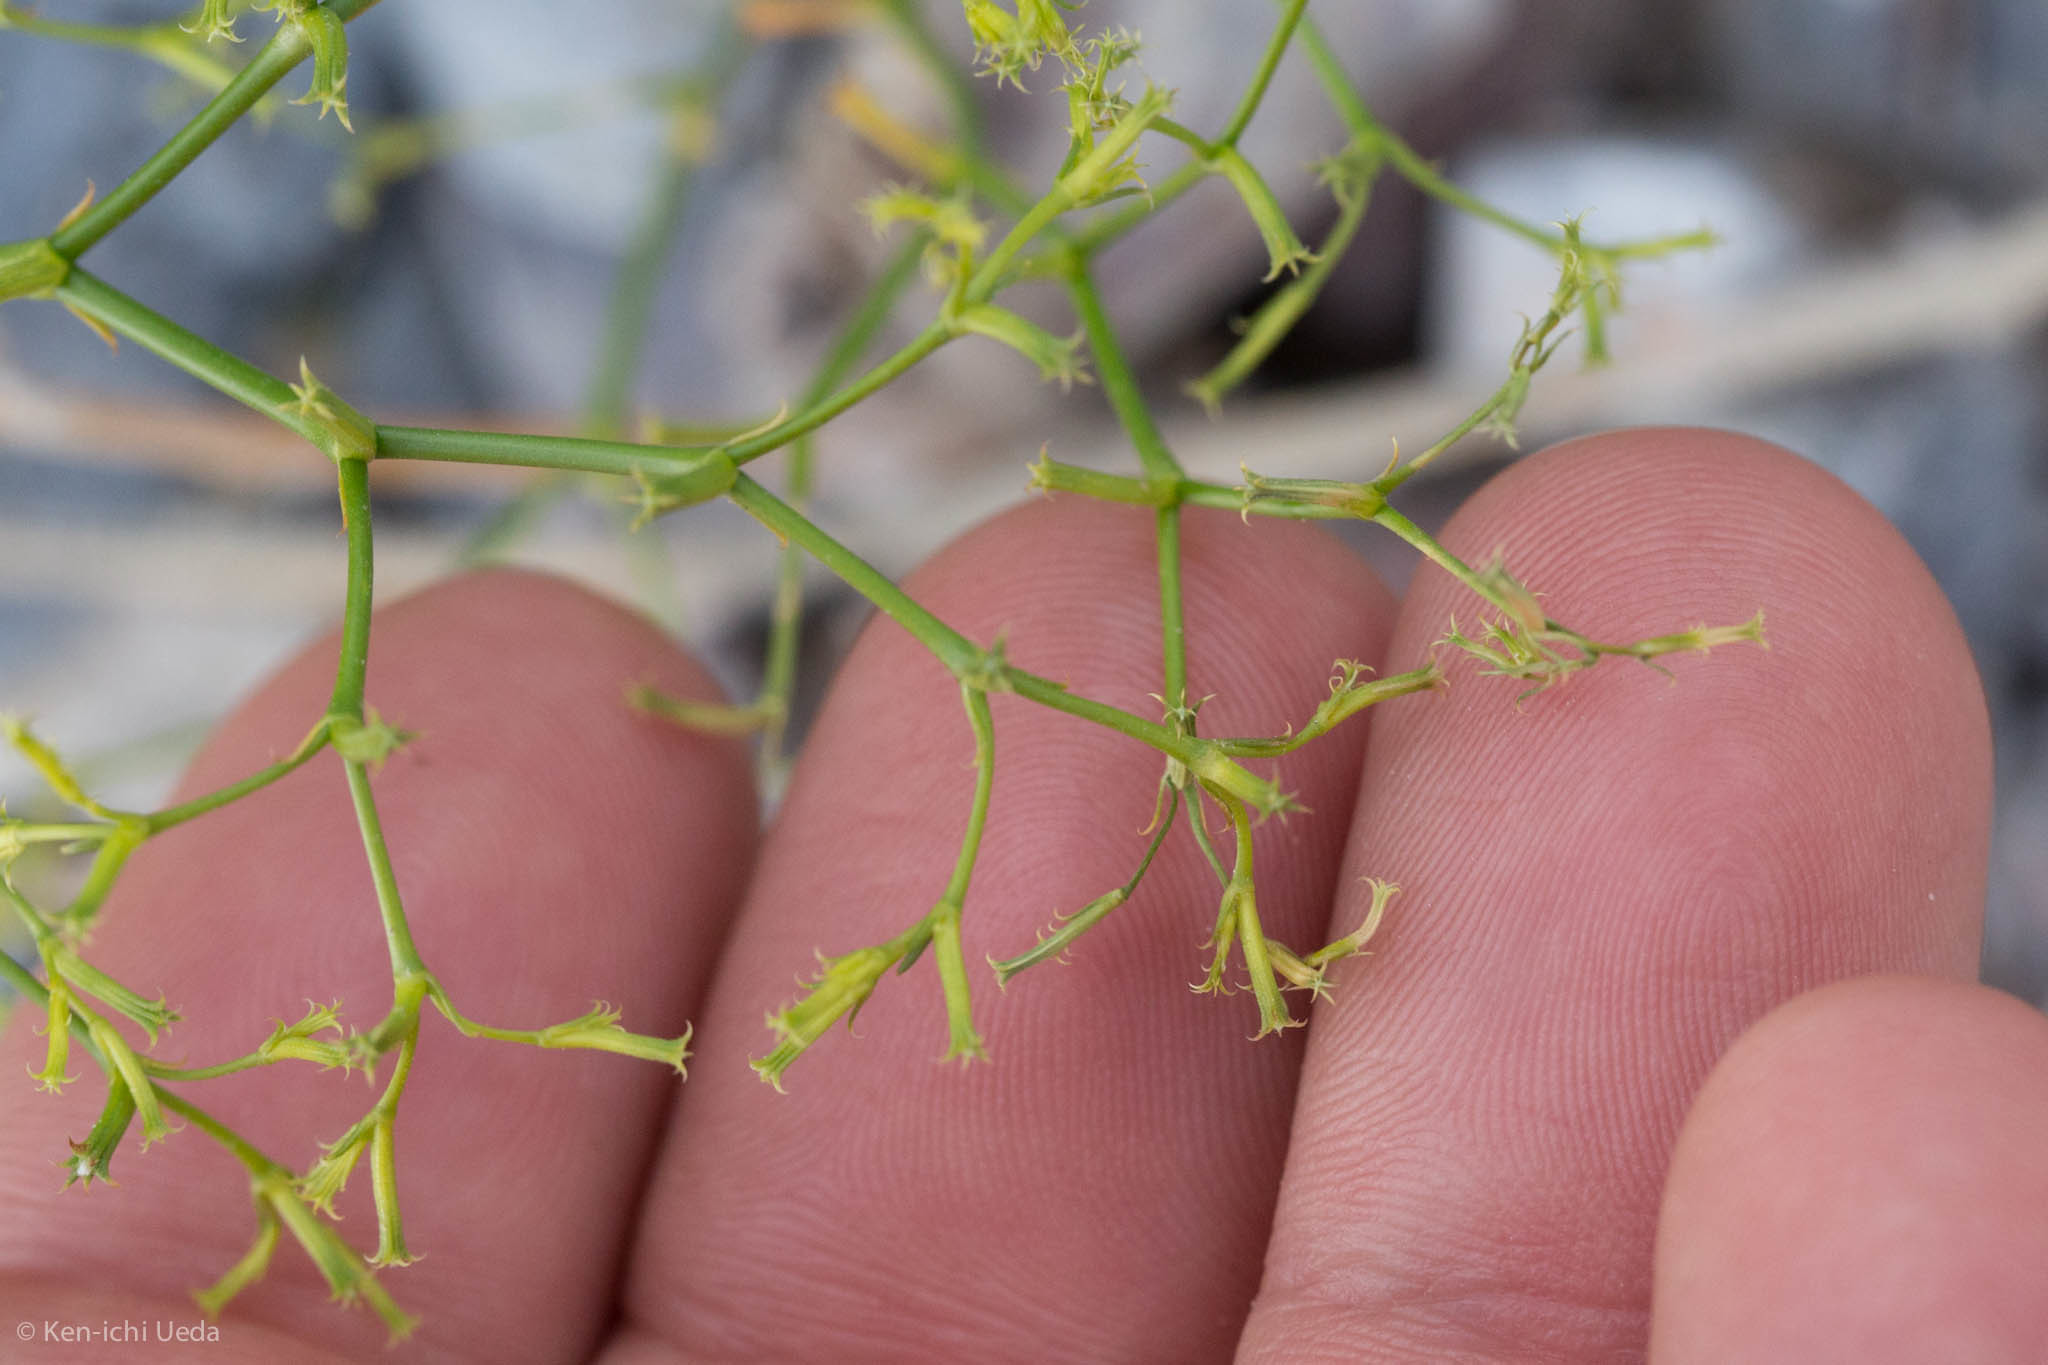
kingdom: Plantae
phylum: Tracheophyta
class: Magnoliopsida
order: Caryophyllales
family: Polygonaceae
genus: Chorizanthe
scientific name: Chorizanthe brevicornu
